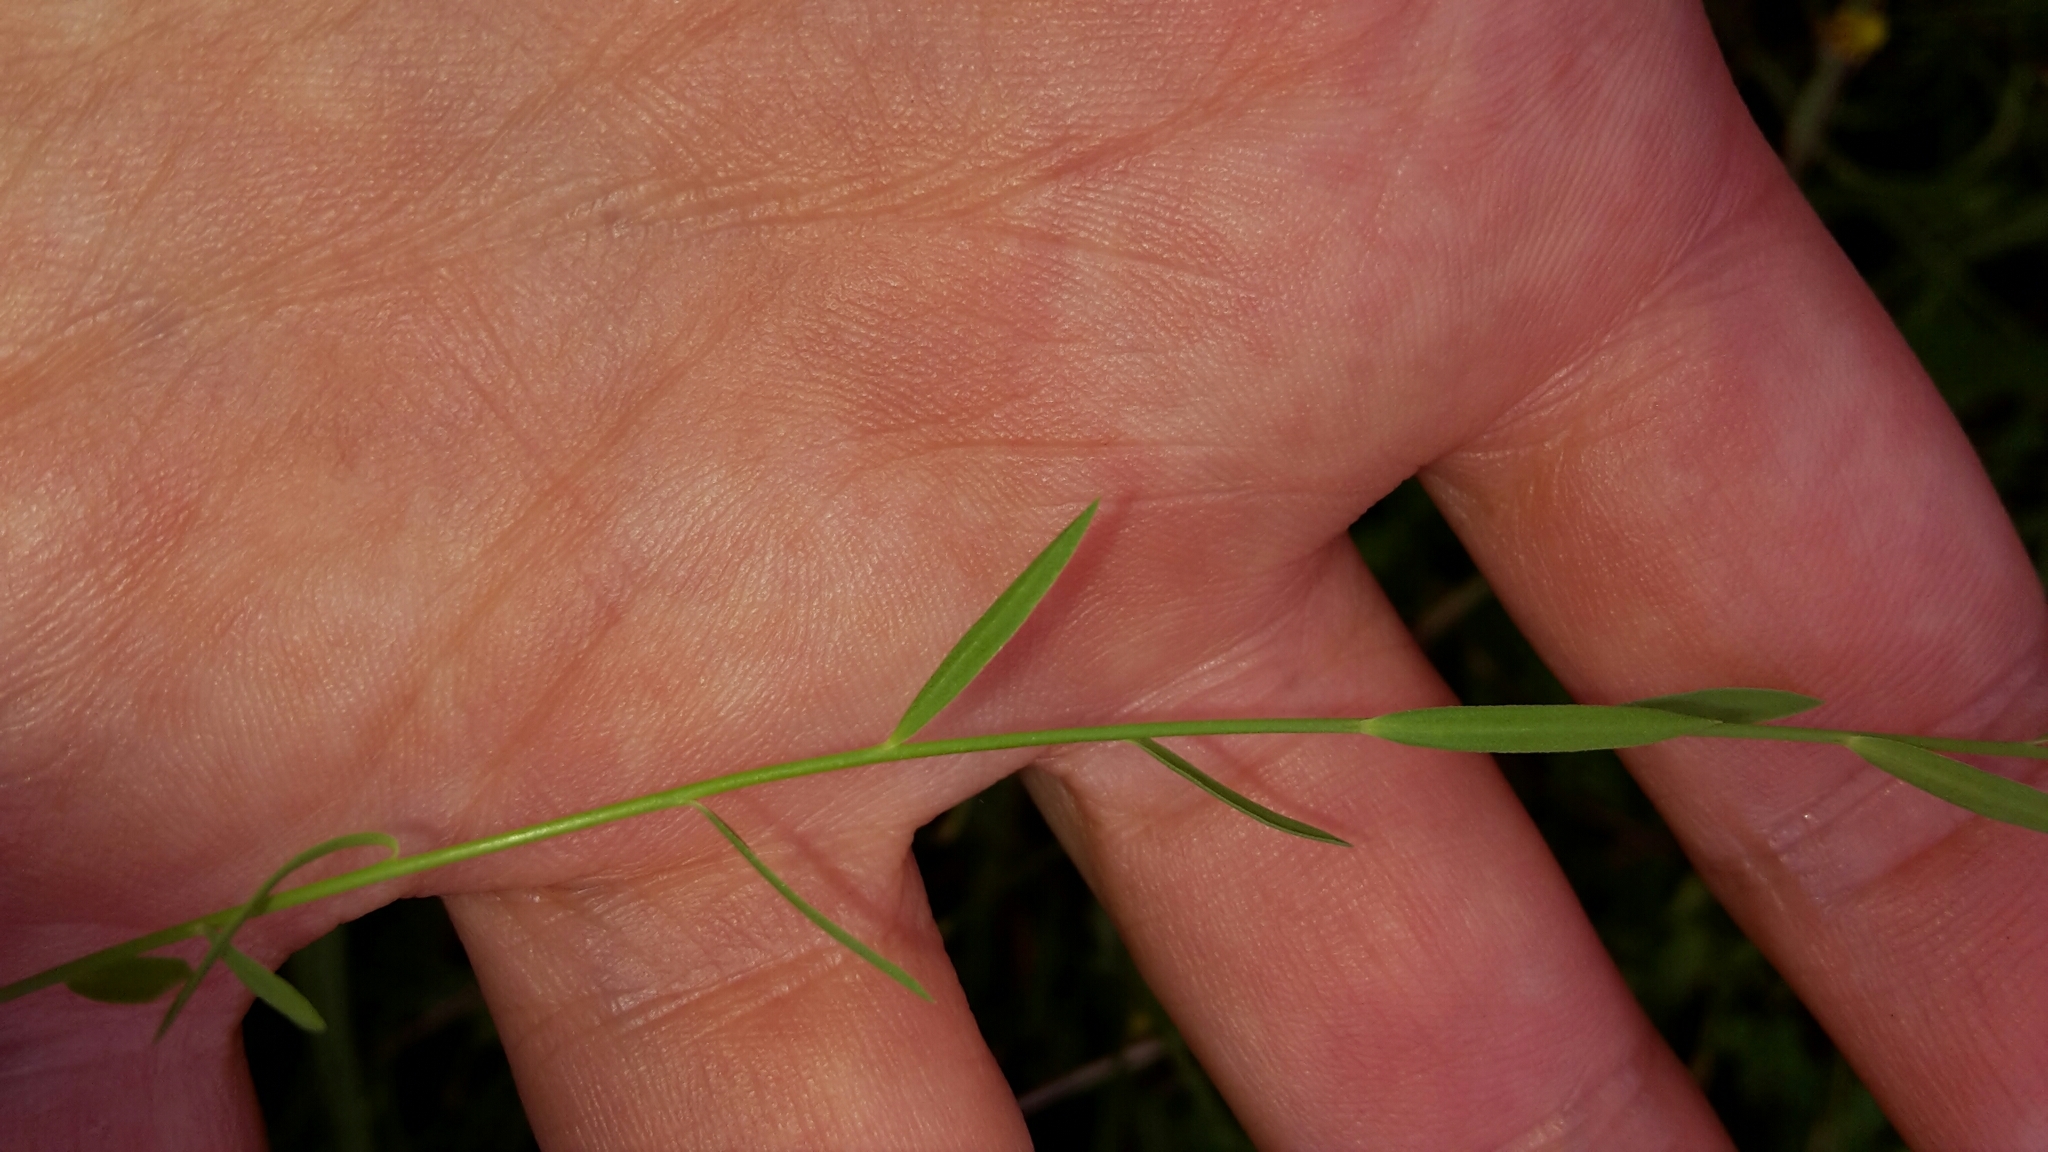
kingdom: Plantae
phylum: Tracheophyta
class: Magnoliopsida
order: Malpighiales
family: Linaceae
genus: Linum
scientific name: Linum bienne
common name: Pale flax
